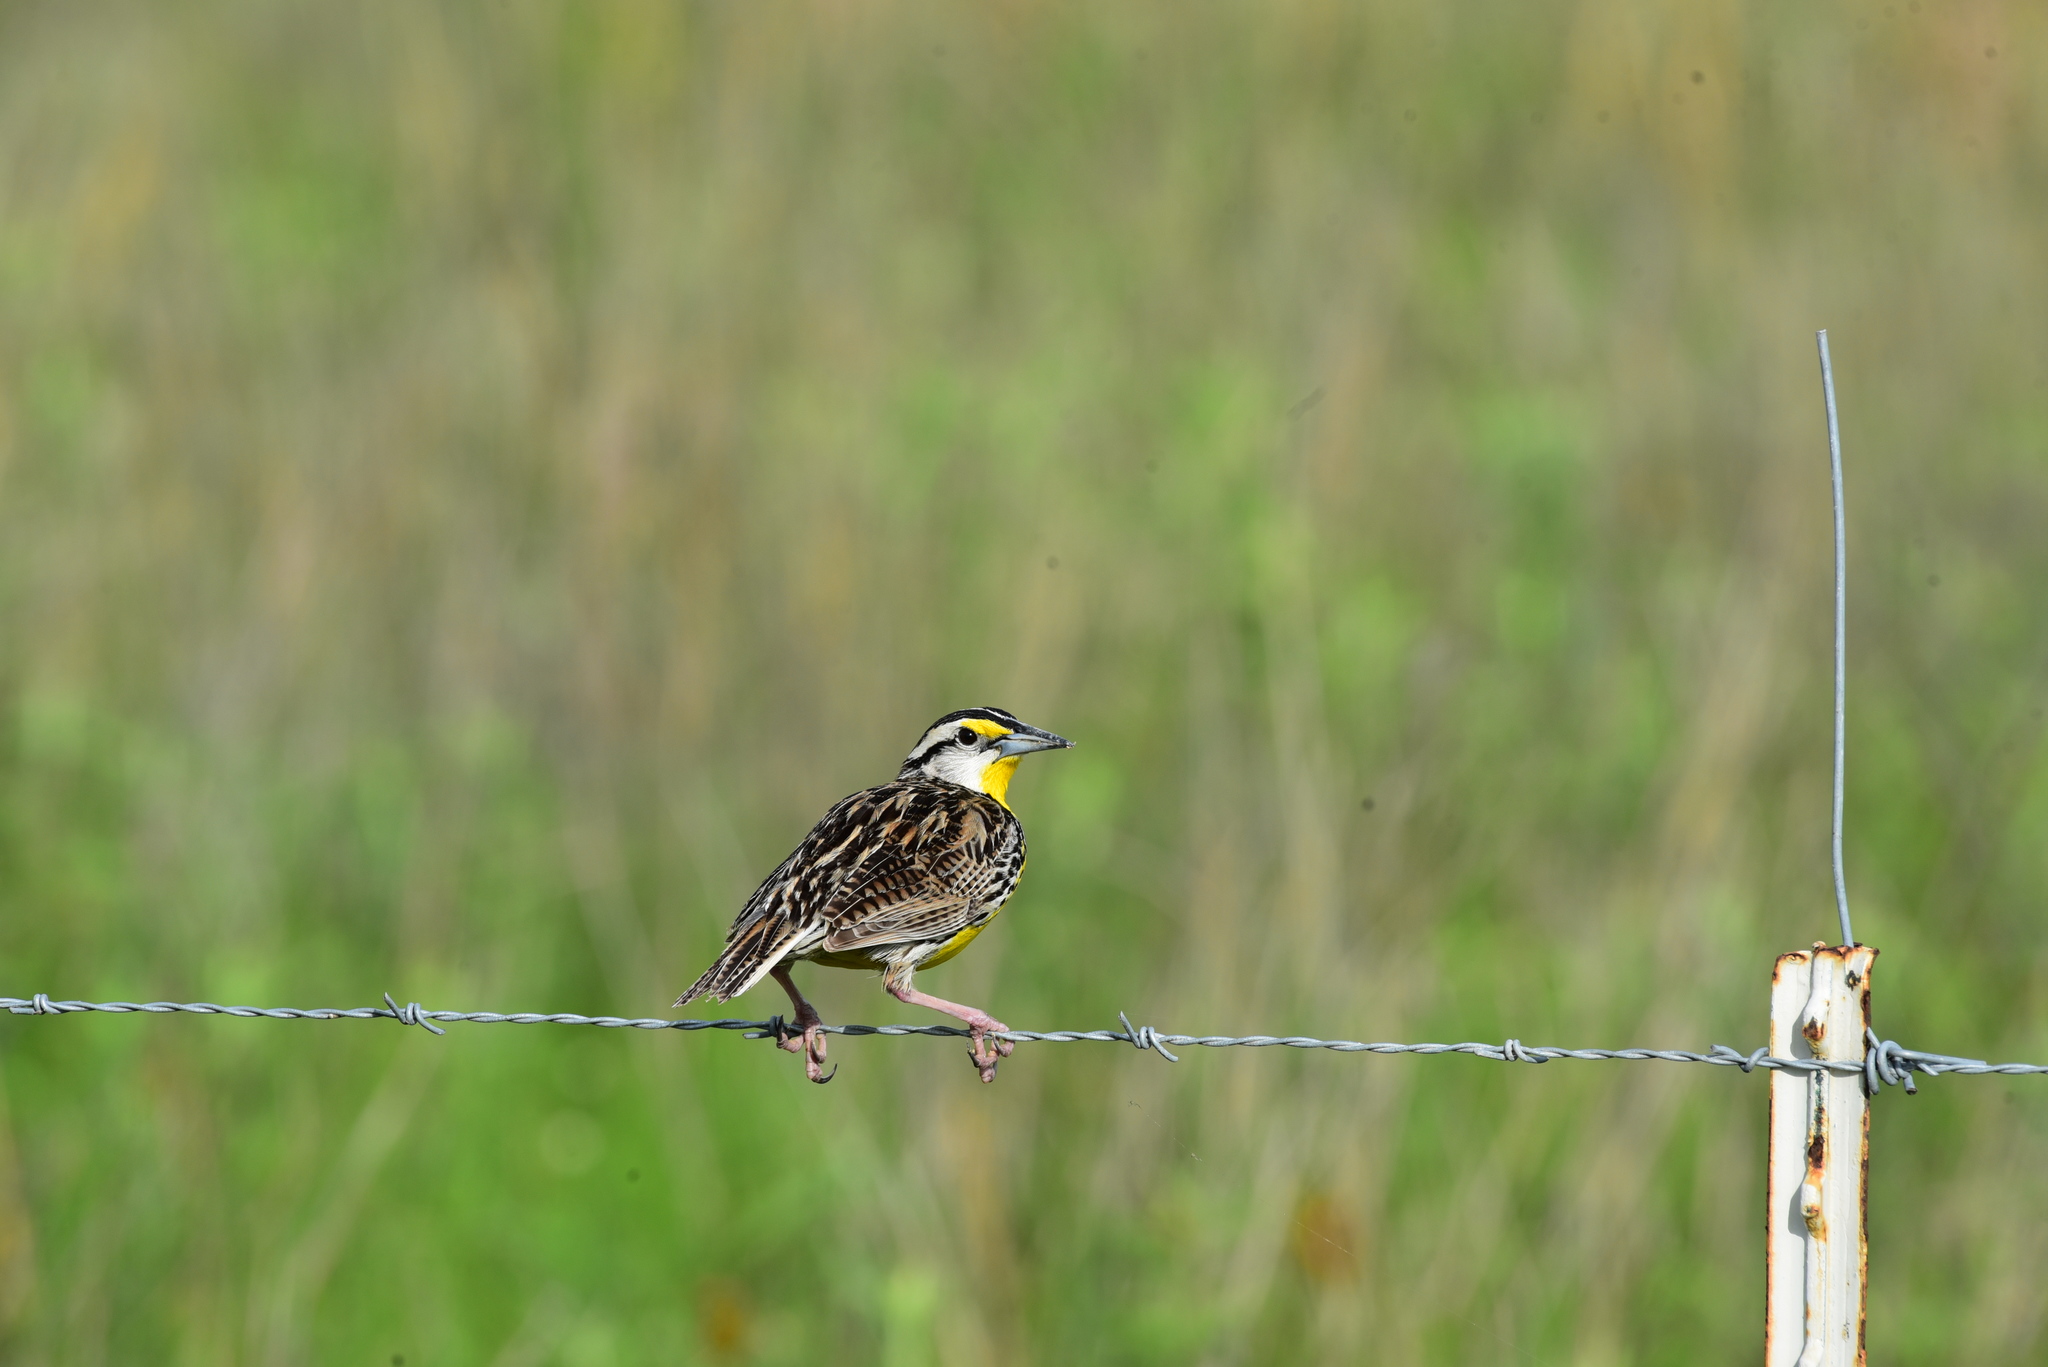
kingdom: Animalia
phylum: Chordata
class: Aves
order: Passeriformes
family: Icteridae
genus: Sturnella
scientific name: Sturnella magna
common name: Eastern meadowlark
